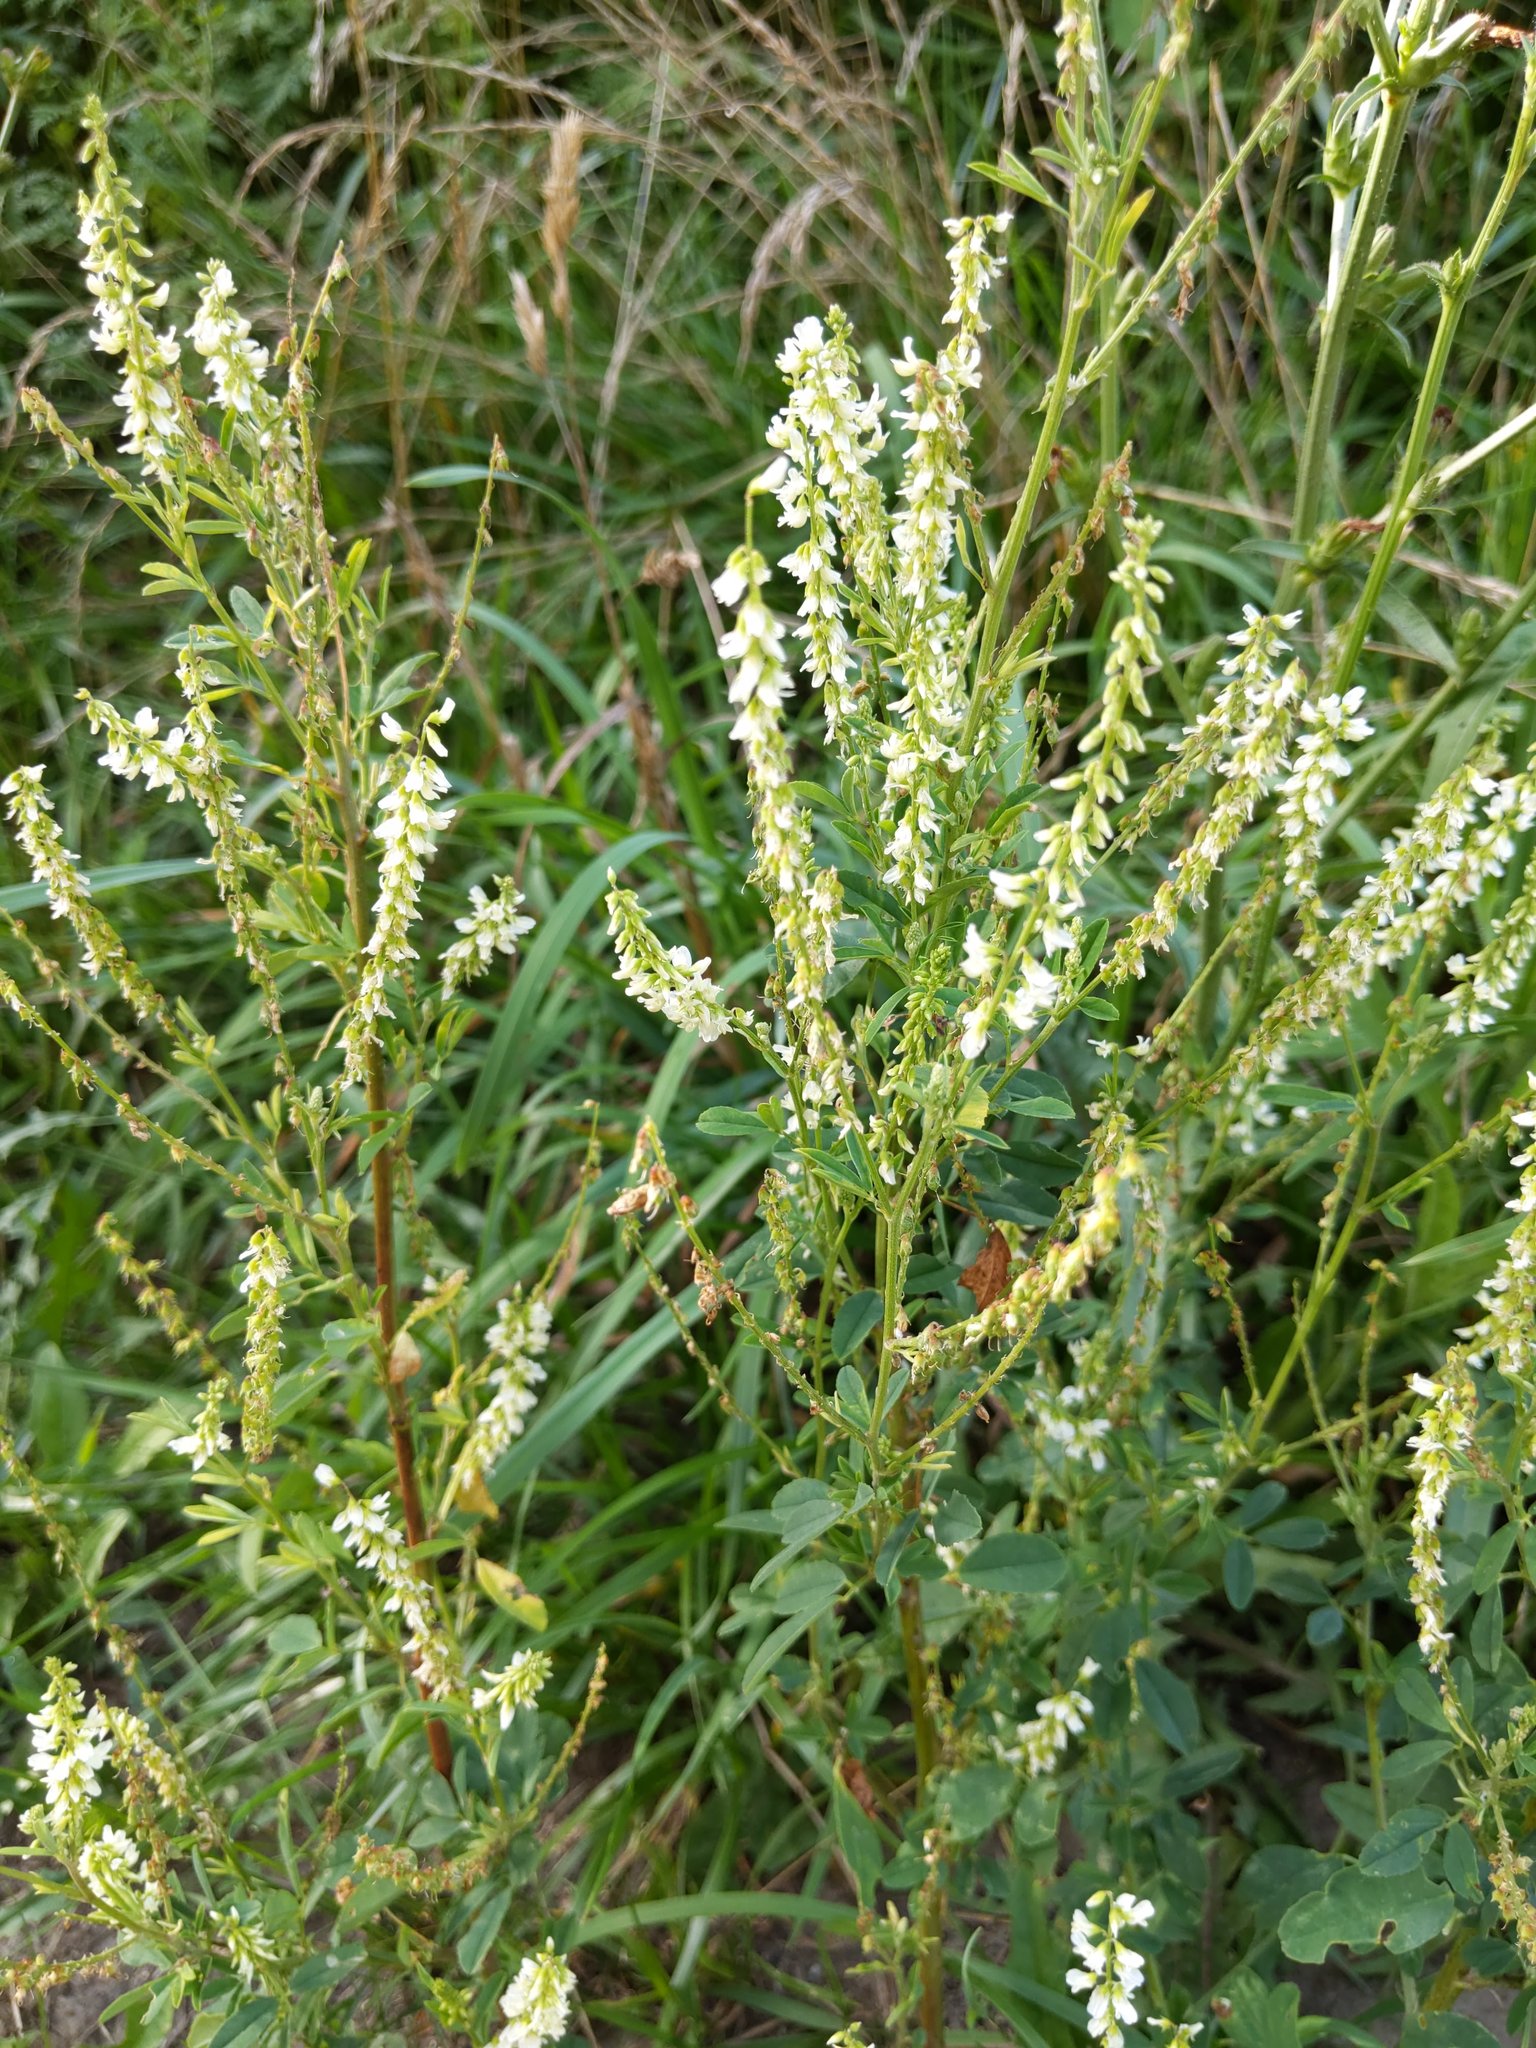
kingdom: Plantae
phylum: Tracheophyta
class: Magnoliopsida
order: Fabales
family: Fabaceae
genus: Melilotus
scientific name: Melilotus albus
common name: White melilot
